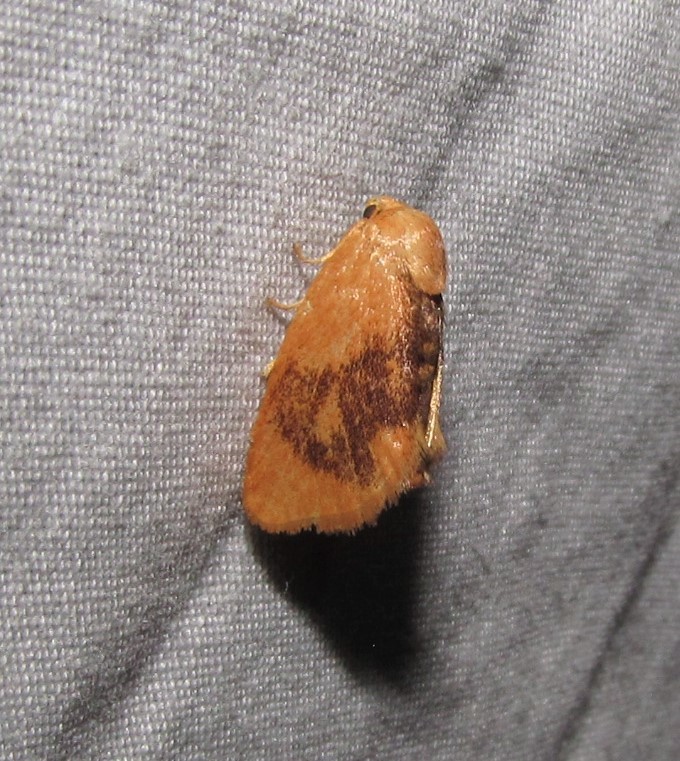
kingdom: Animalia
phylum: Arthropoda
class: Insecta
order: Lepidoptera
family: Limacodidae
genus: Tortricidia
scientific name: Tortricidia flexuosa
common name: Abbreviated button slug moth
